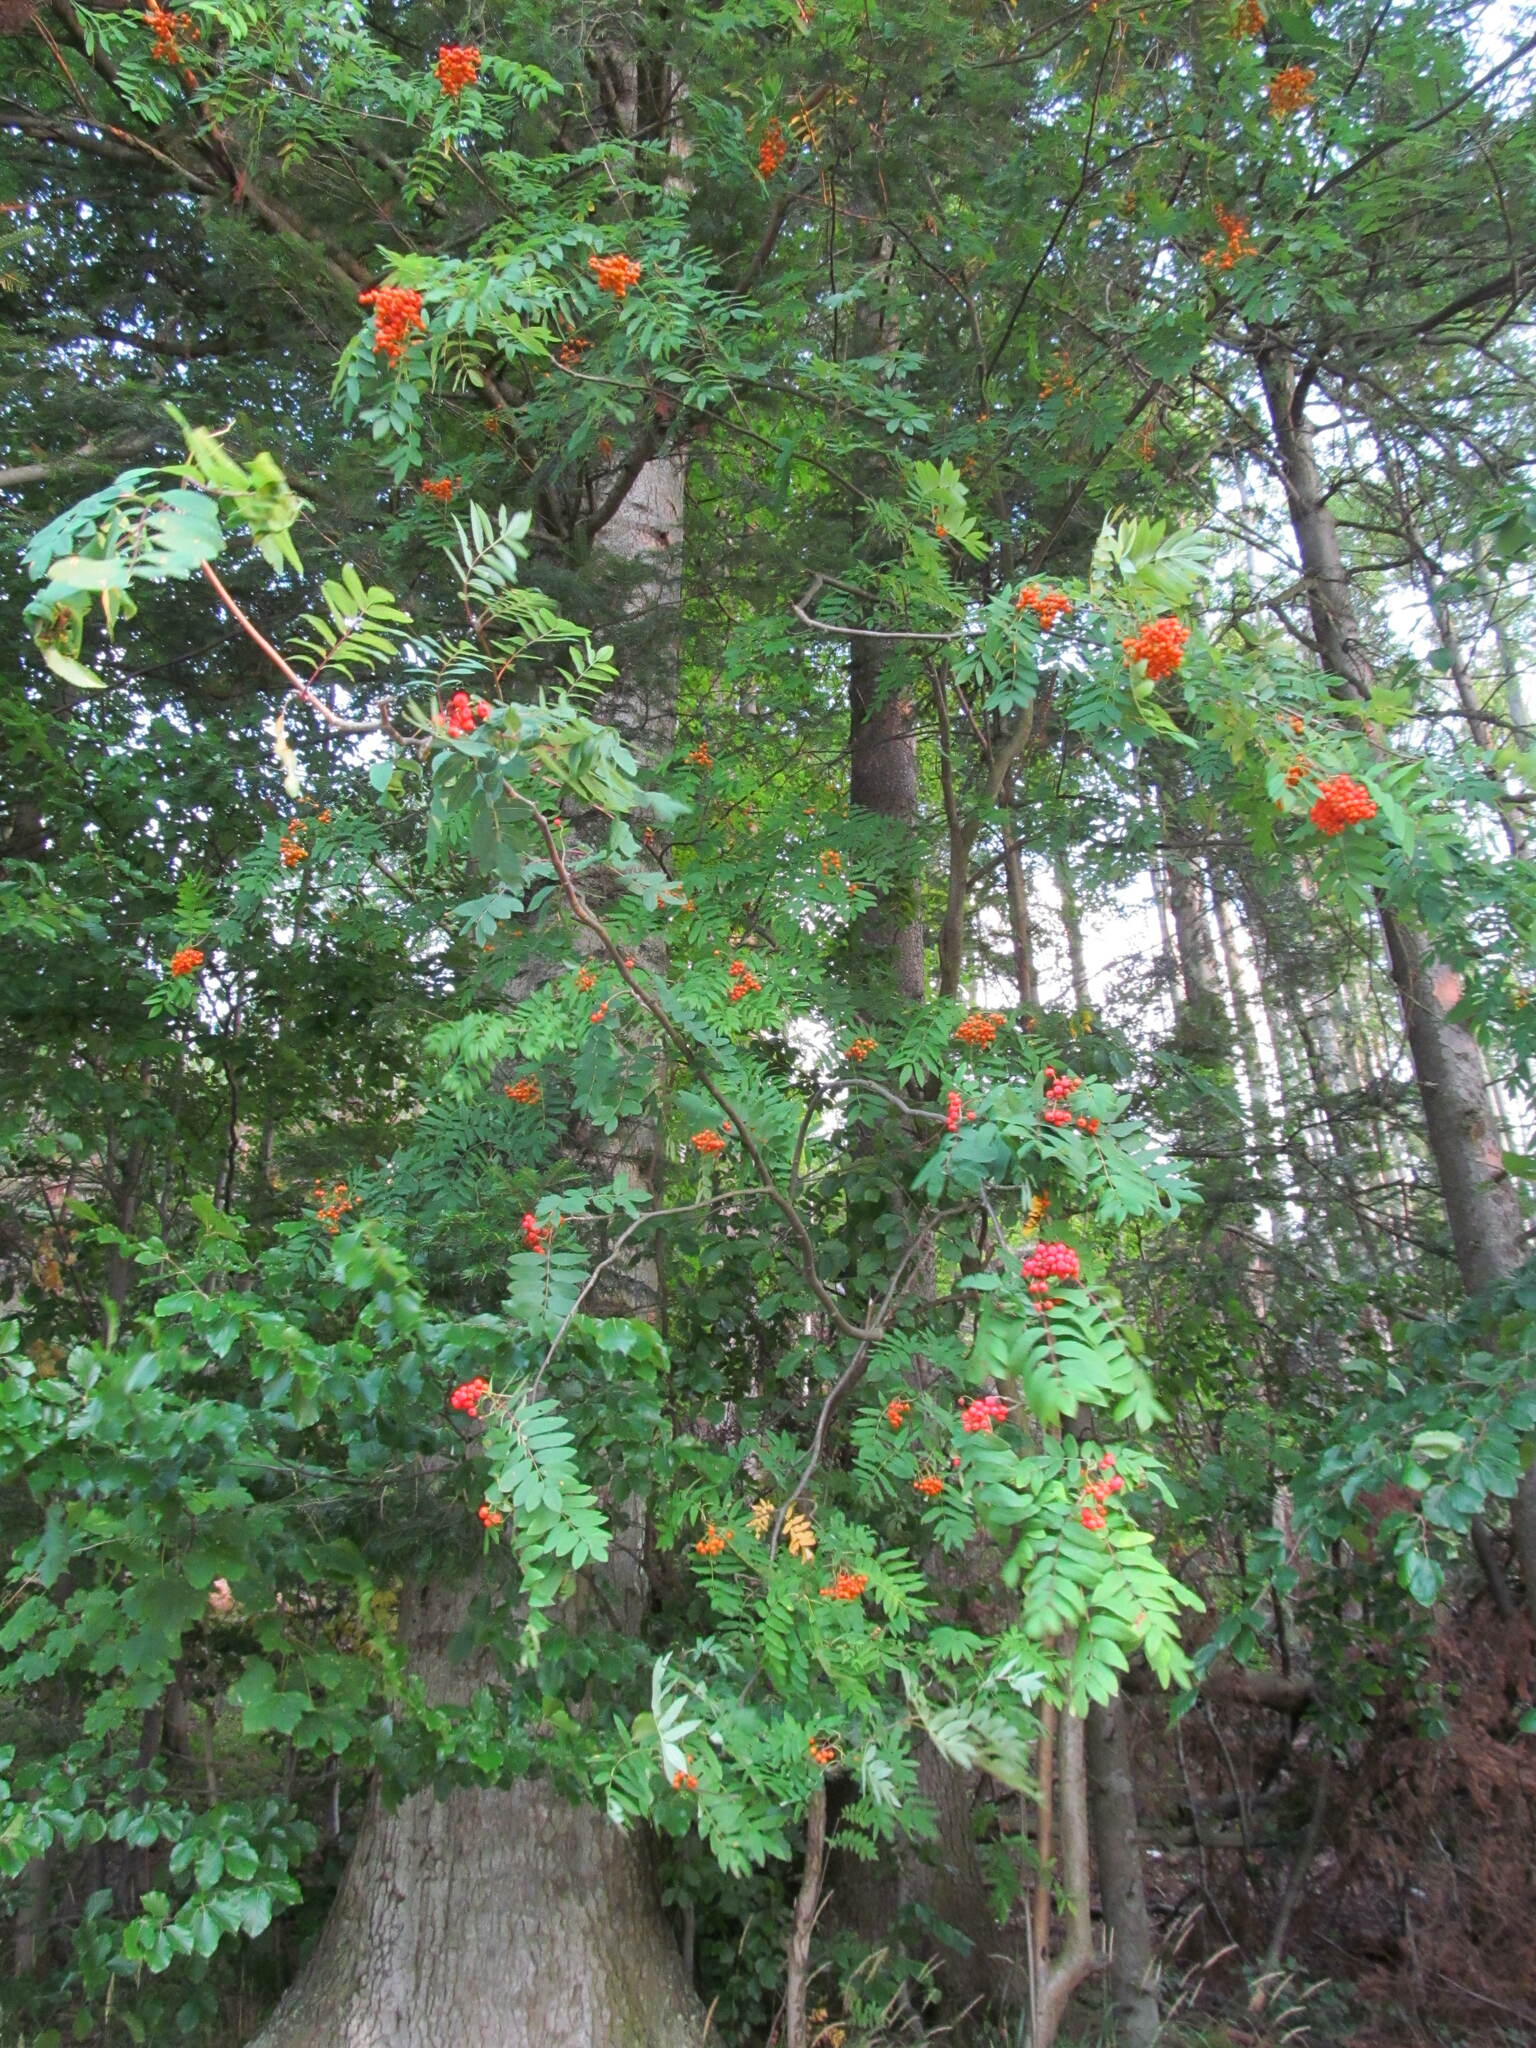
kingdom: Plantae
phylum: Tracheophyta
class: Magnoliopsida
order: Rosales
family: Rosaceae
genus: Sorbus
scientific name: Sorbus aucuparia
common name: Rowan
